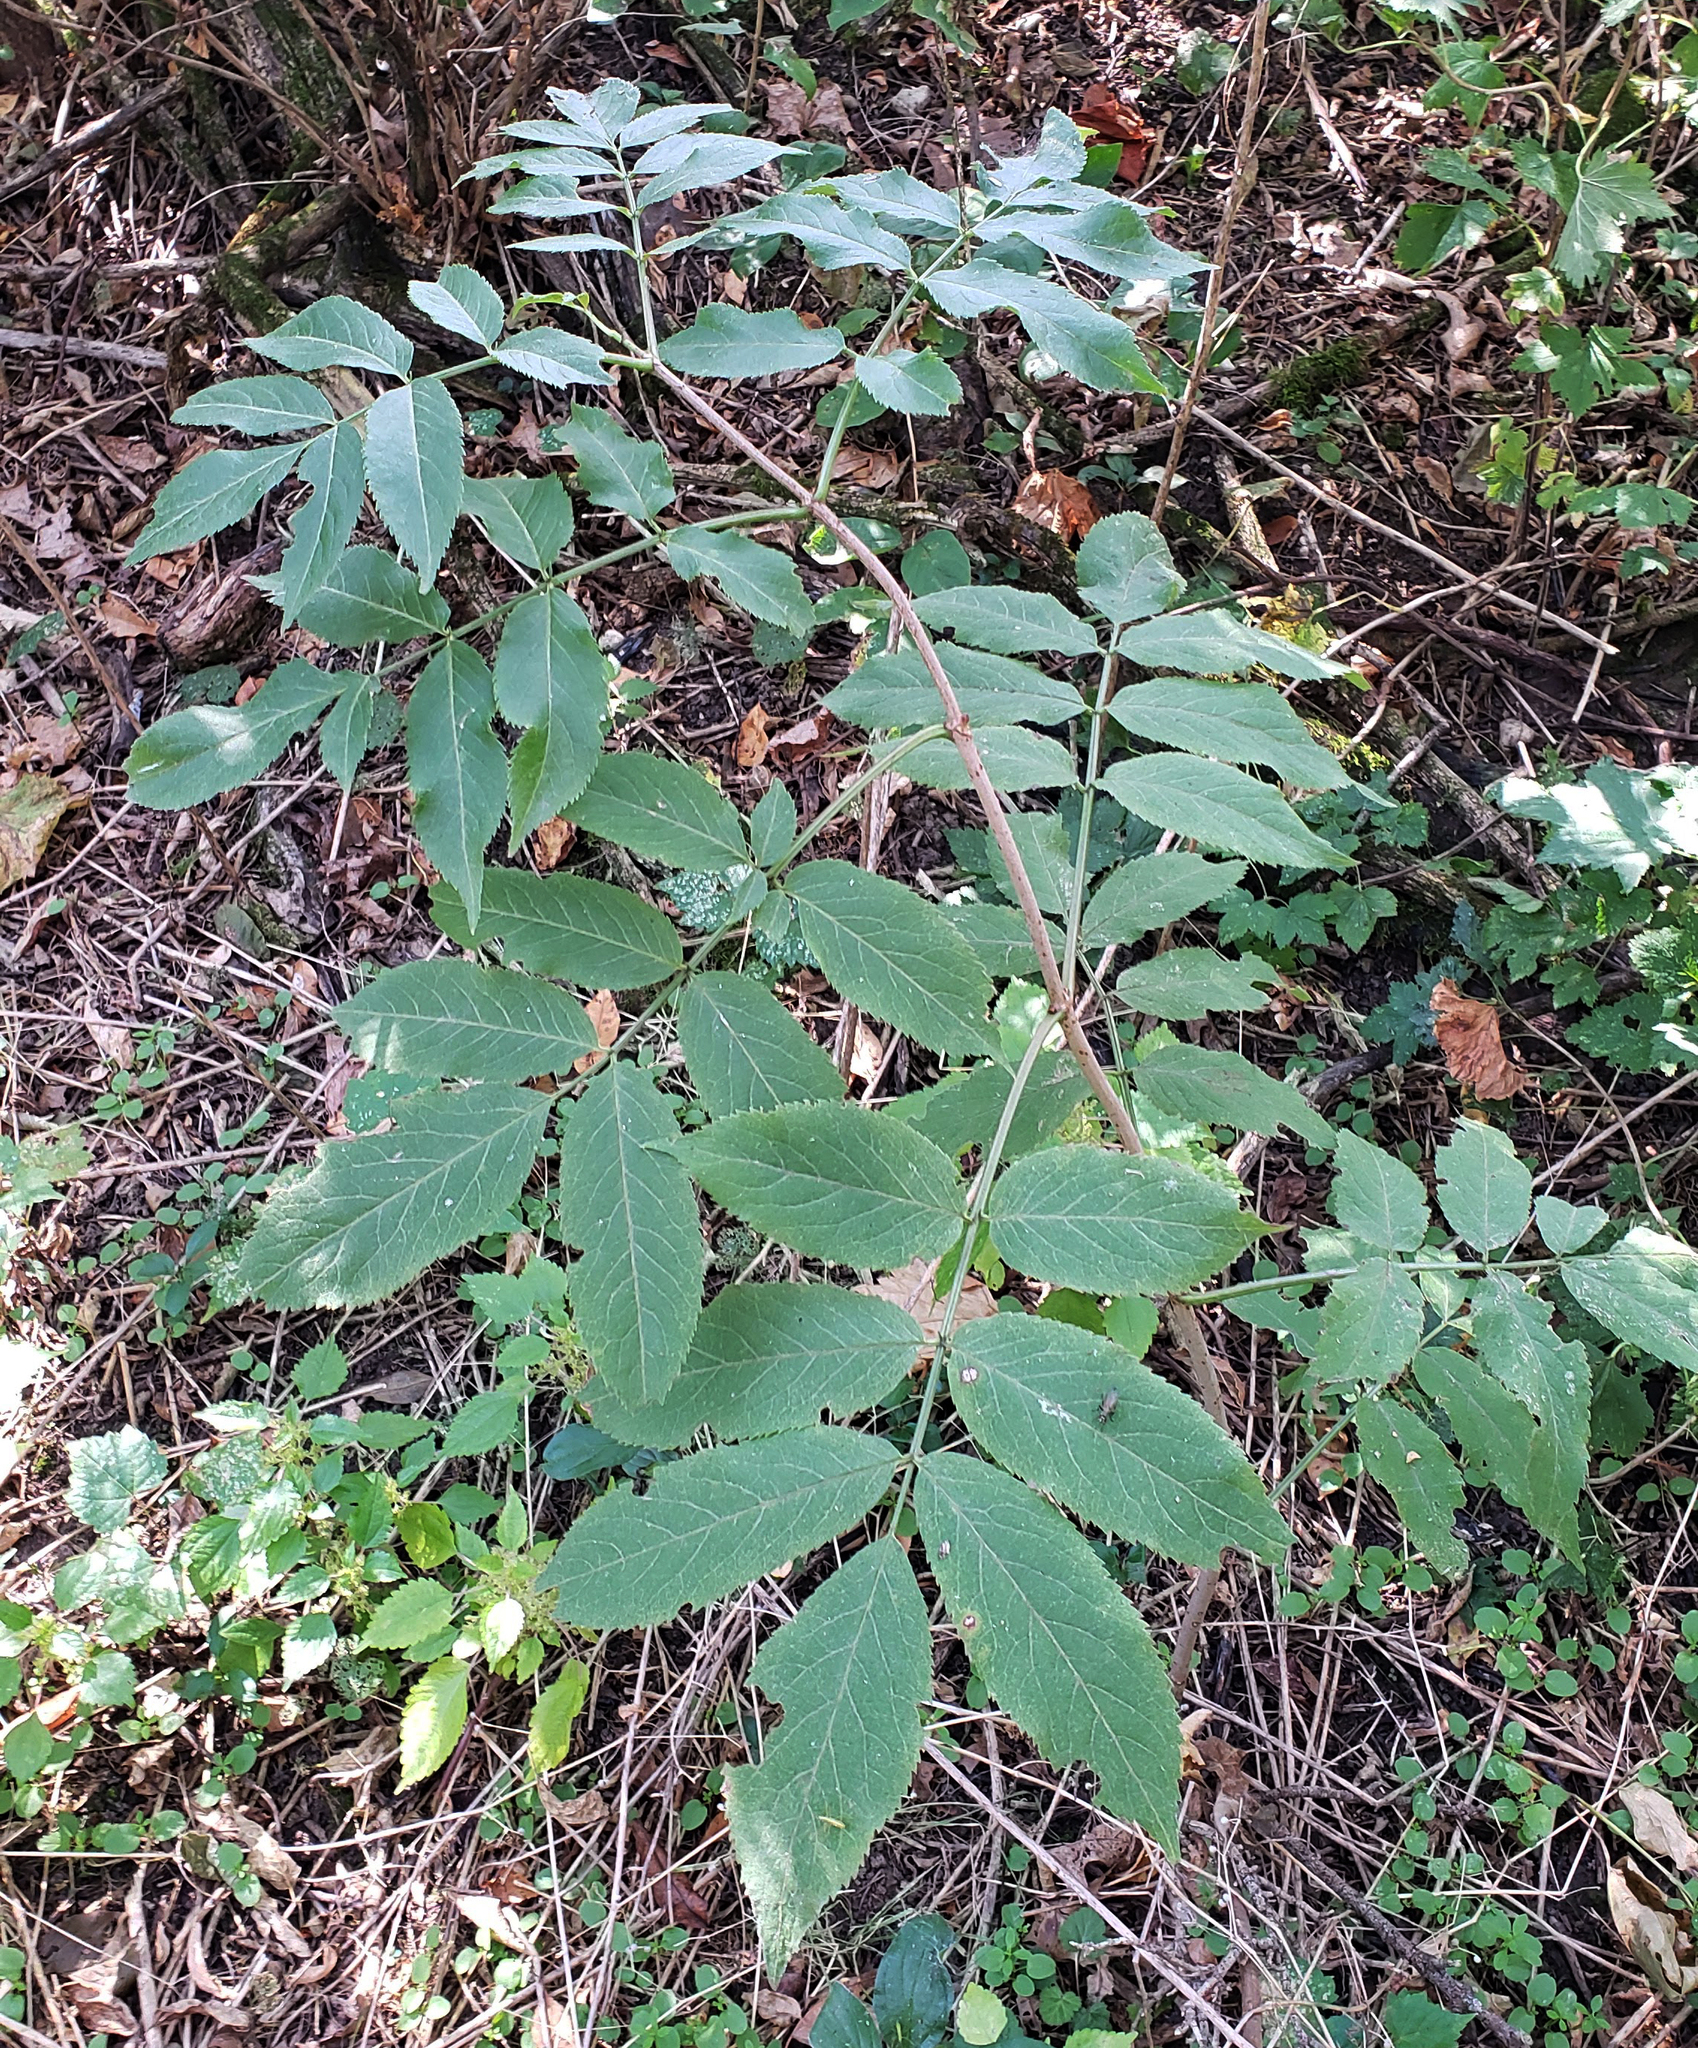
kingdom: Plantae
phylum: Tracheophyta
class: Magnoliopsida
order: Dipsacales
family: Viburnaceae
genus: Sambucus
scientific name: Sambucus canadensis
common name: American elder
